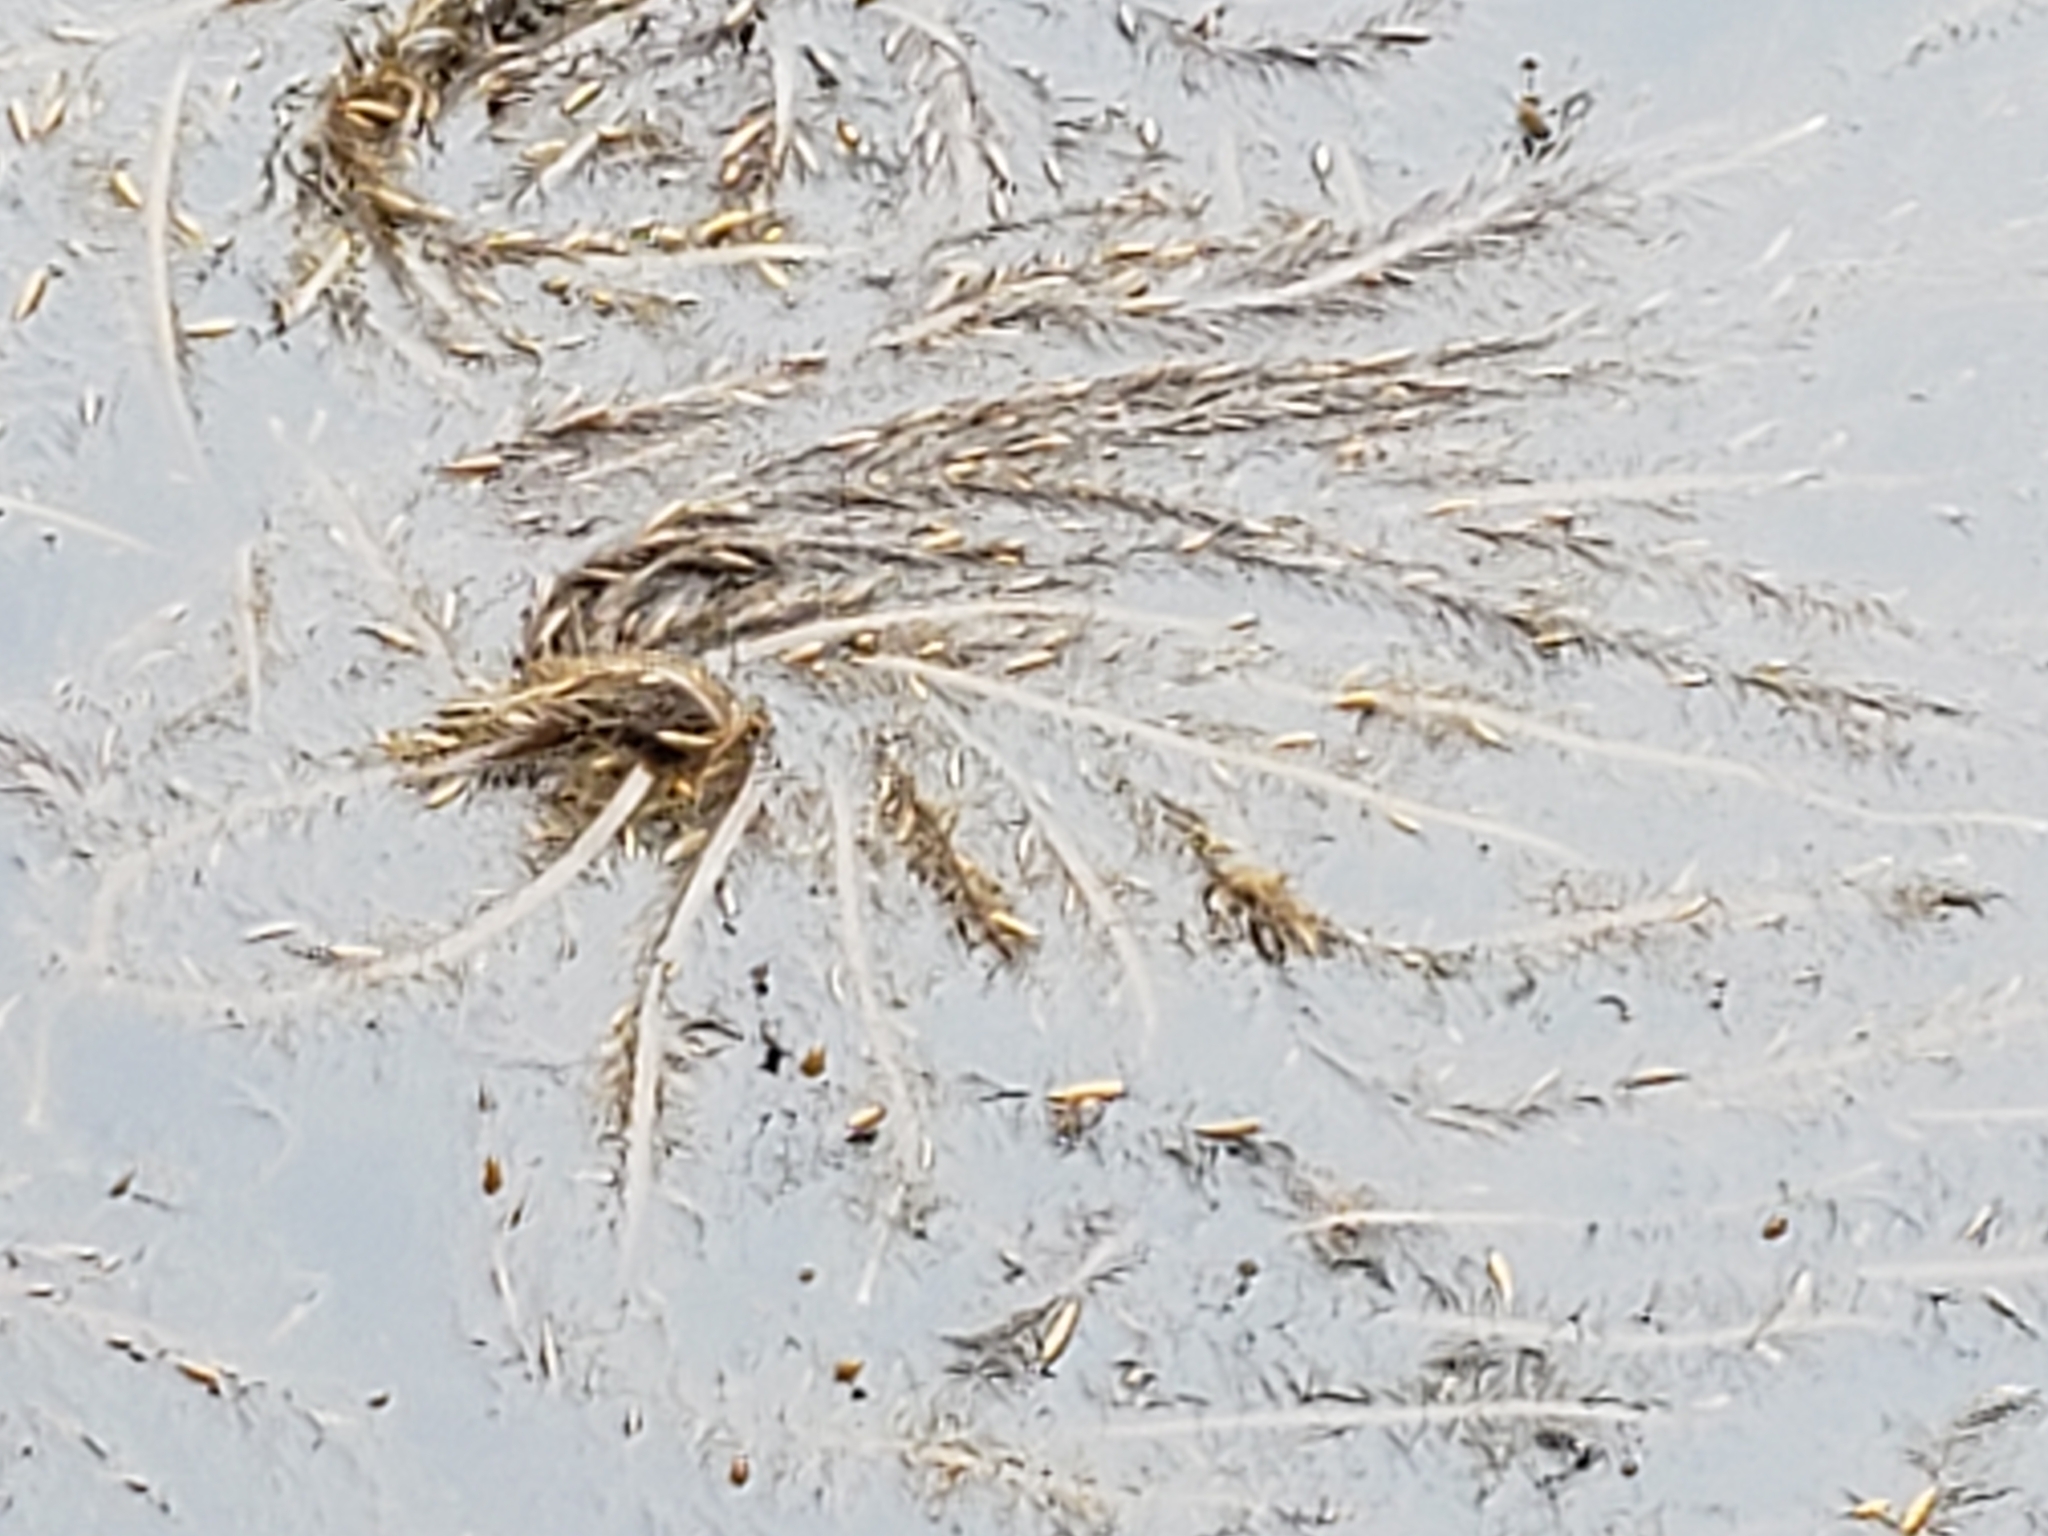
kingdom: Chromista
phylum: Ochrophyta
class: Phaeophyceae
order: Laminariales
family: Lessoniaceae
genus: Egregia
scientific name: Egregia menziesii
